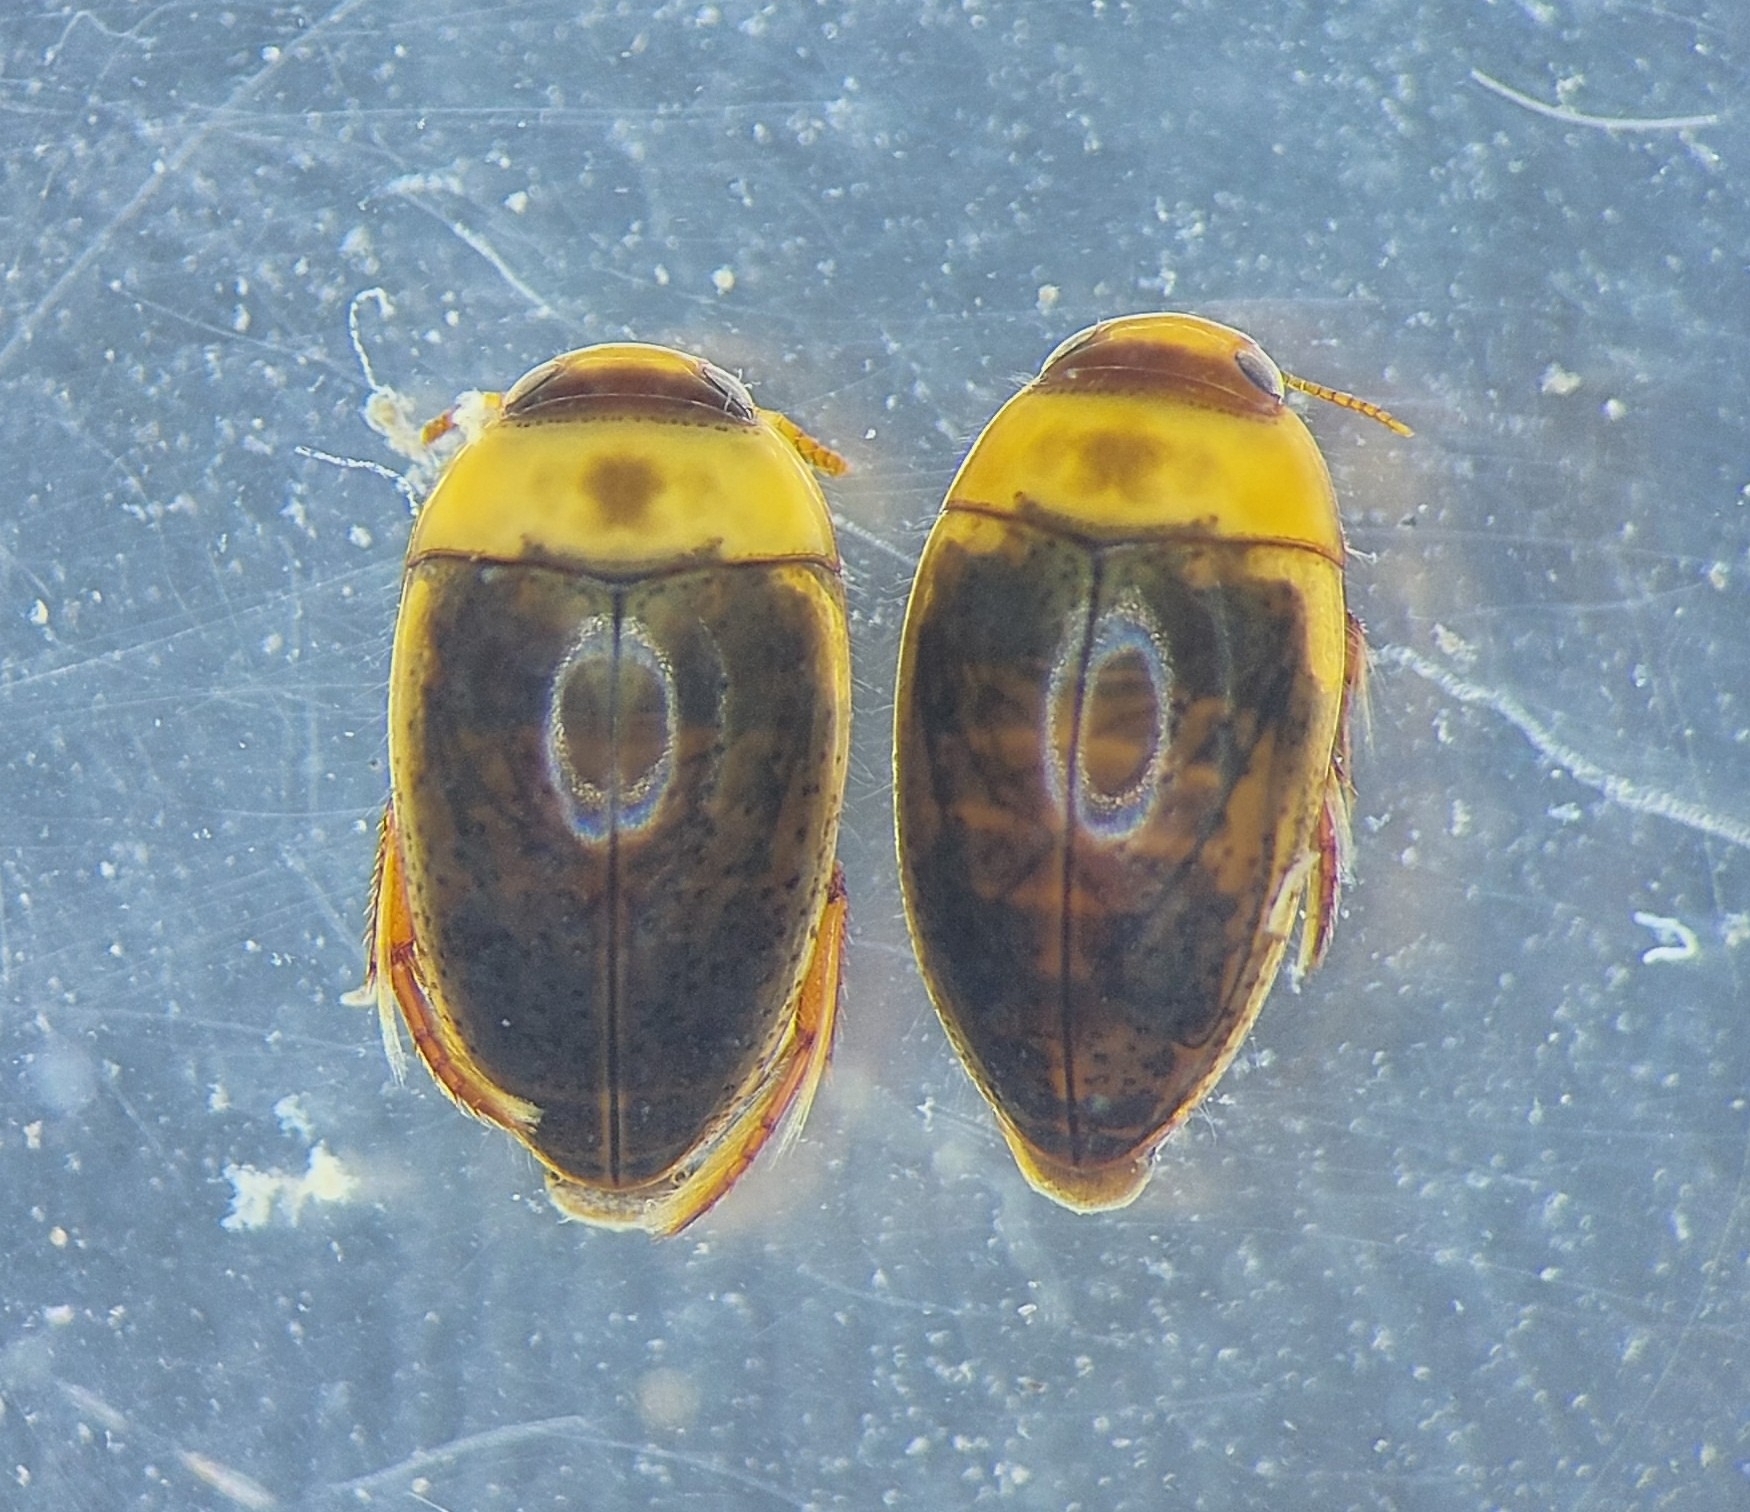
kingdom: Animalia
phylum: Arthropoda
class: Insecta
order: Coleoptera
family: Noteridae
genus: Noterus
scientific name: Noterus clavicornis
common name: Larger noterus
